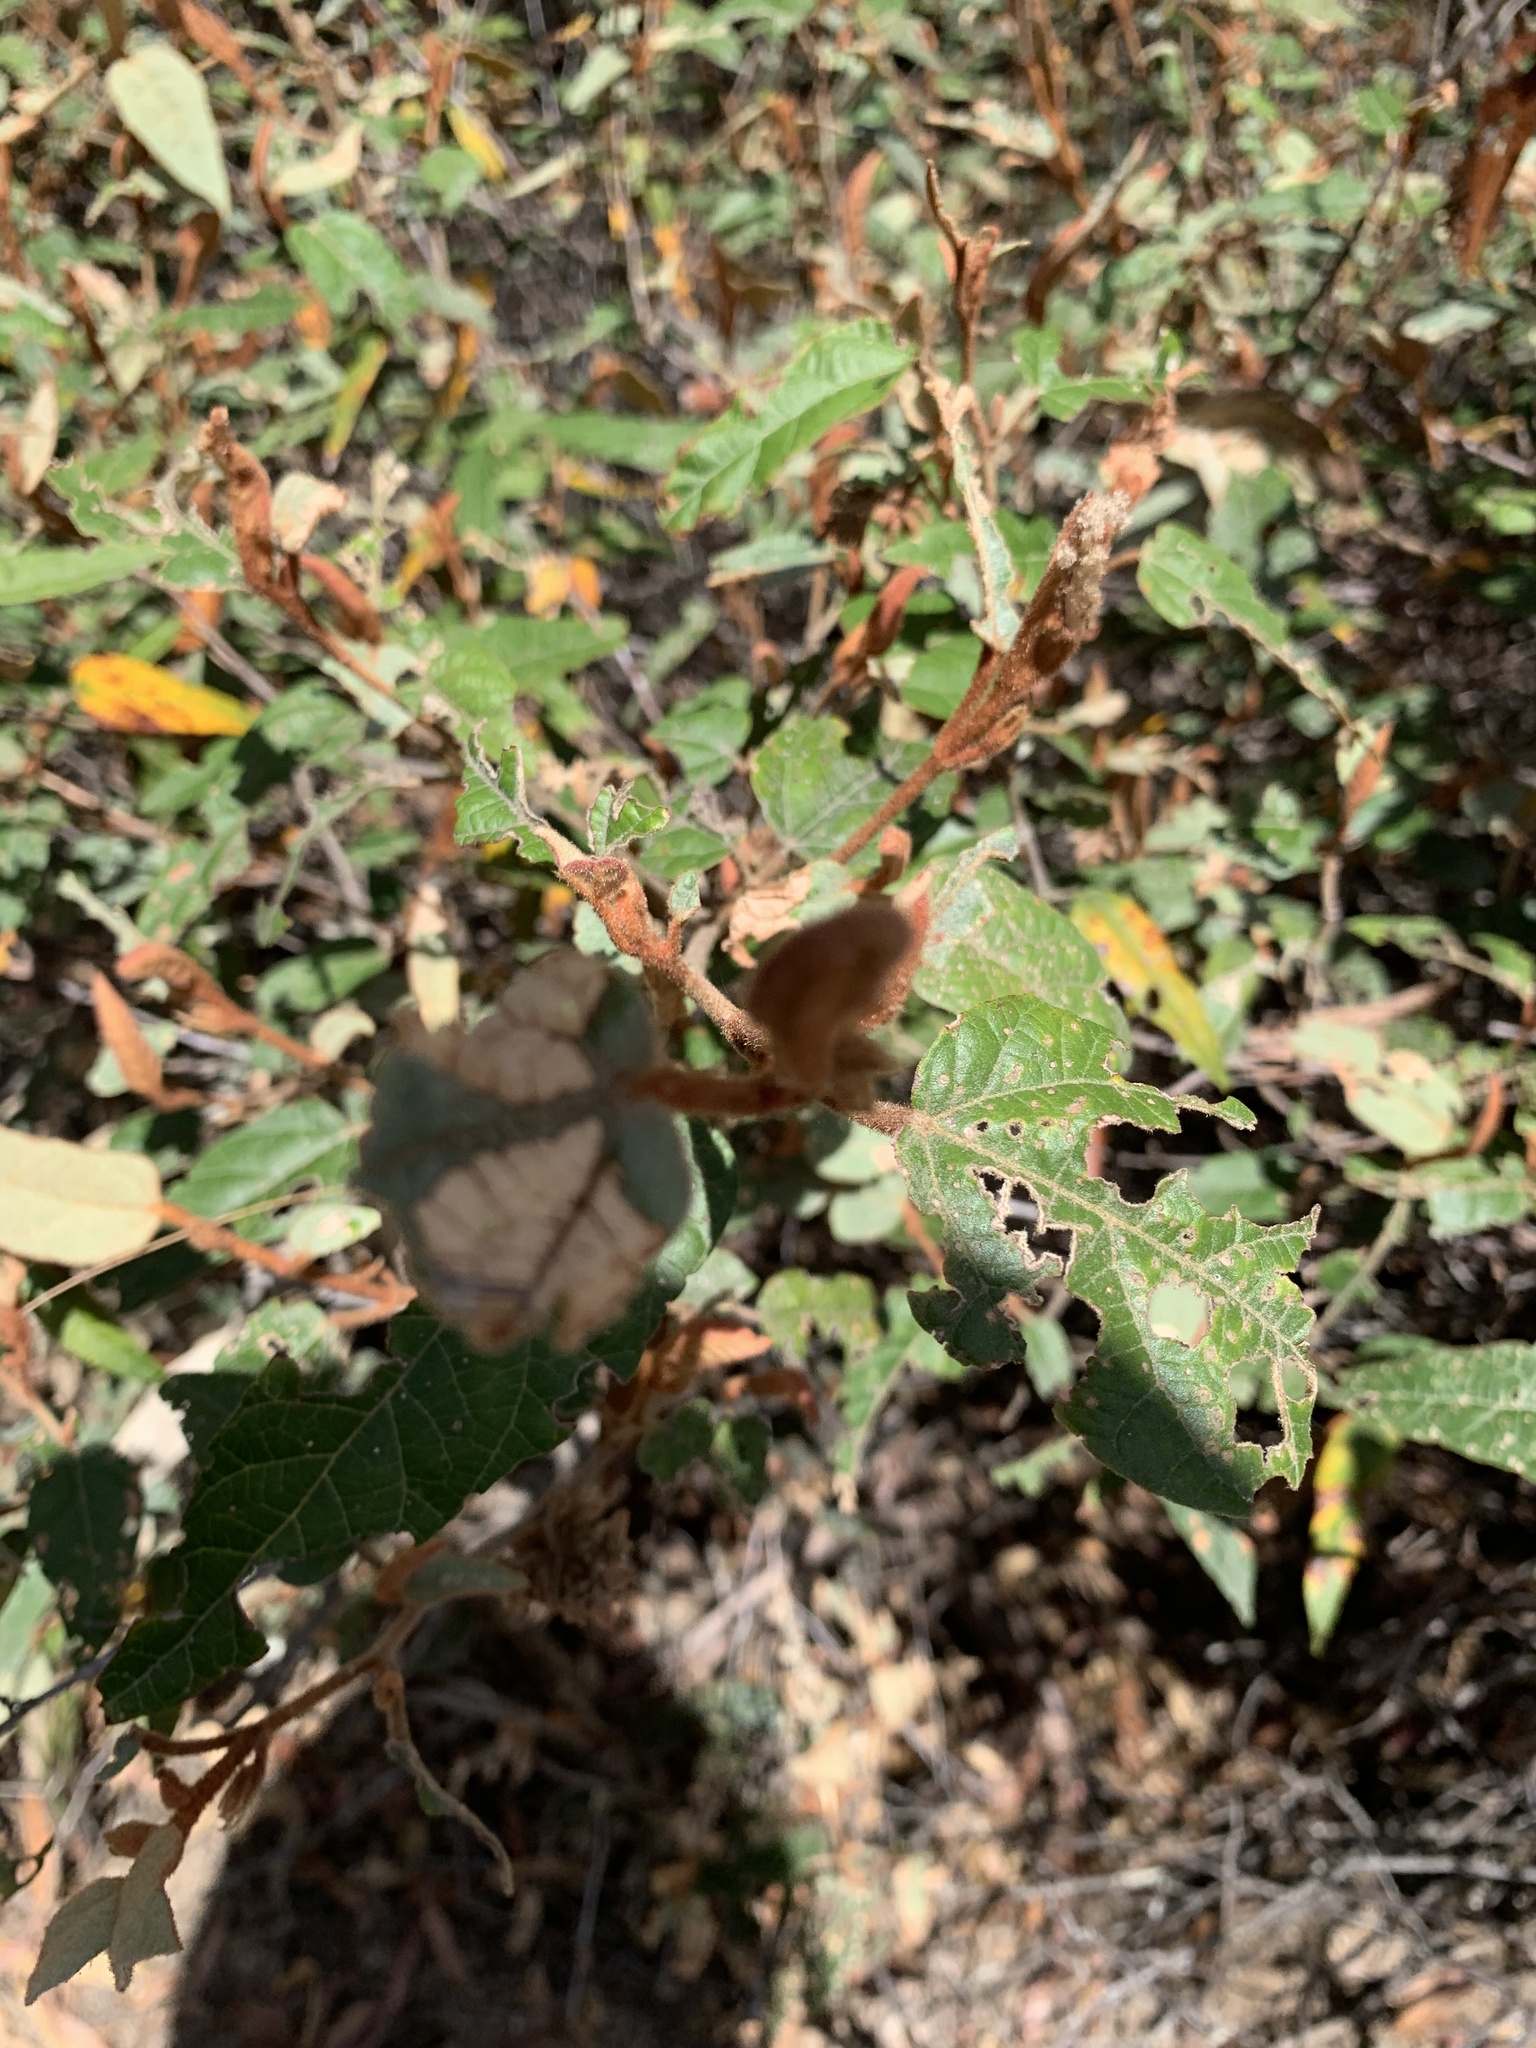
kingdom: Plantae
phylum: Tracheophyta
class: Magnoliopsida
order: Malvales
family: Malvaceae
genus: Lasiopetalum
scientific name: Lasiopetalum macrophyllum
